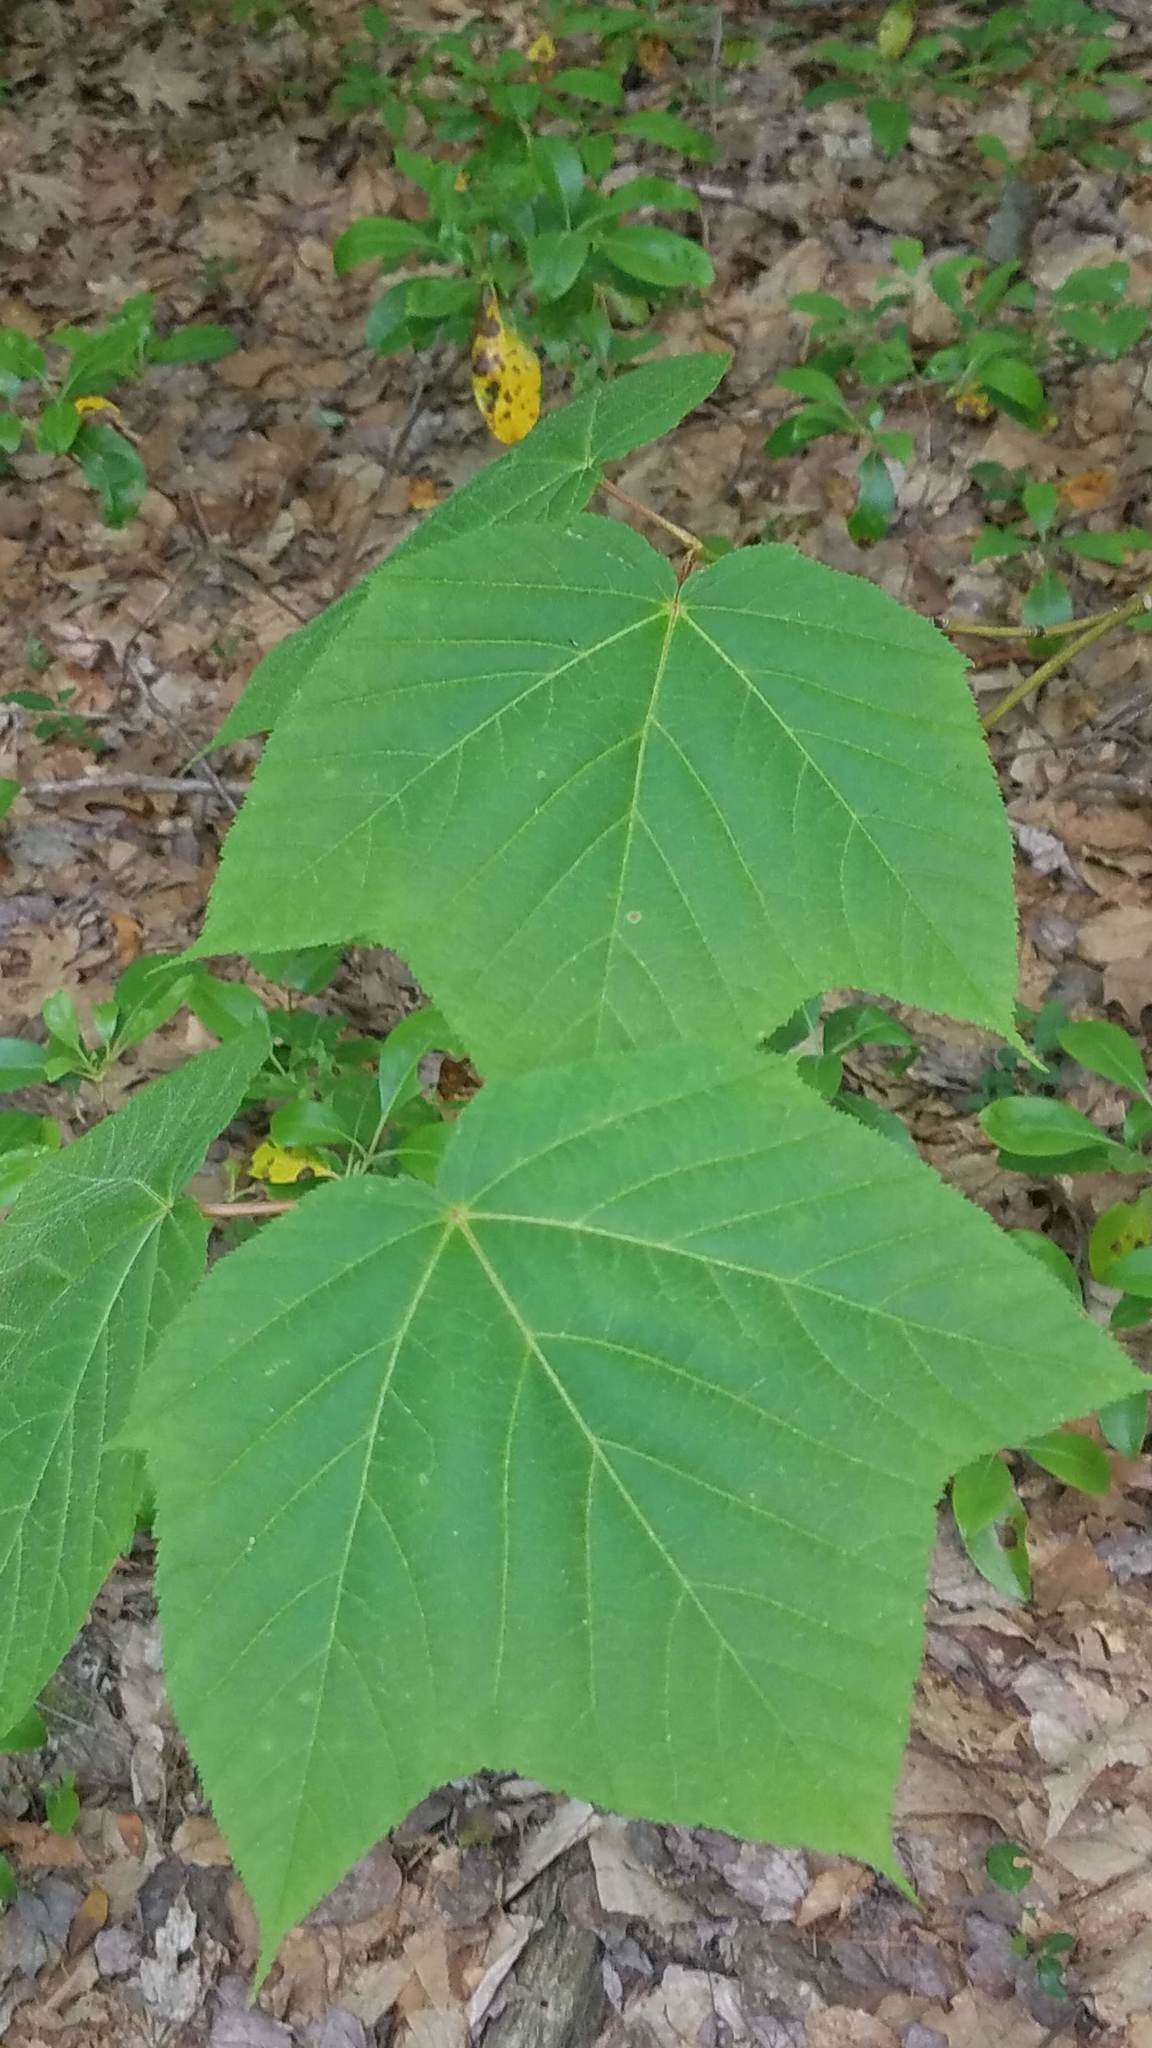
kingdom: Plantae
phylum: Tracheophyta
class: Magnoliopsida
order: Sapindales
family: Sapindaceae
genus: Acer
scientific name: Acer pensylvanicum
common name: Moosewood
